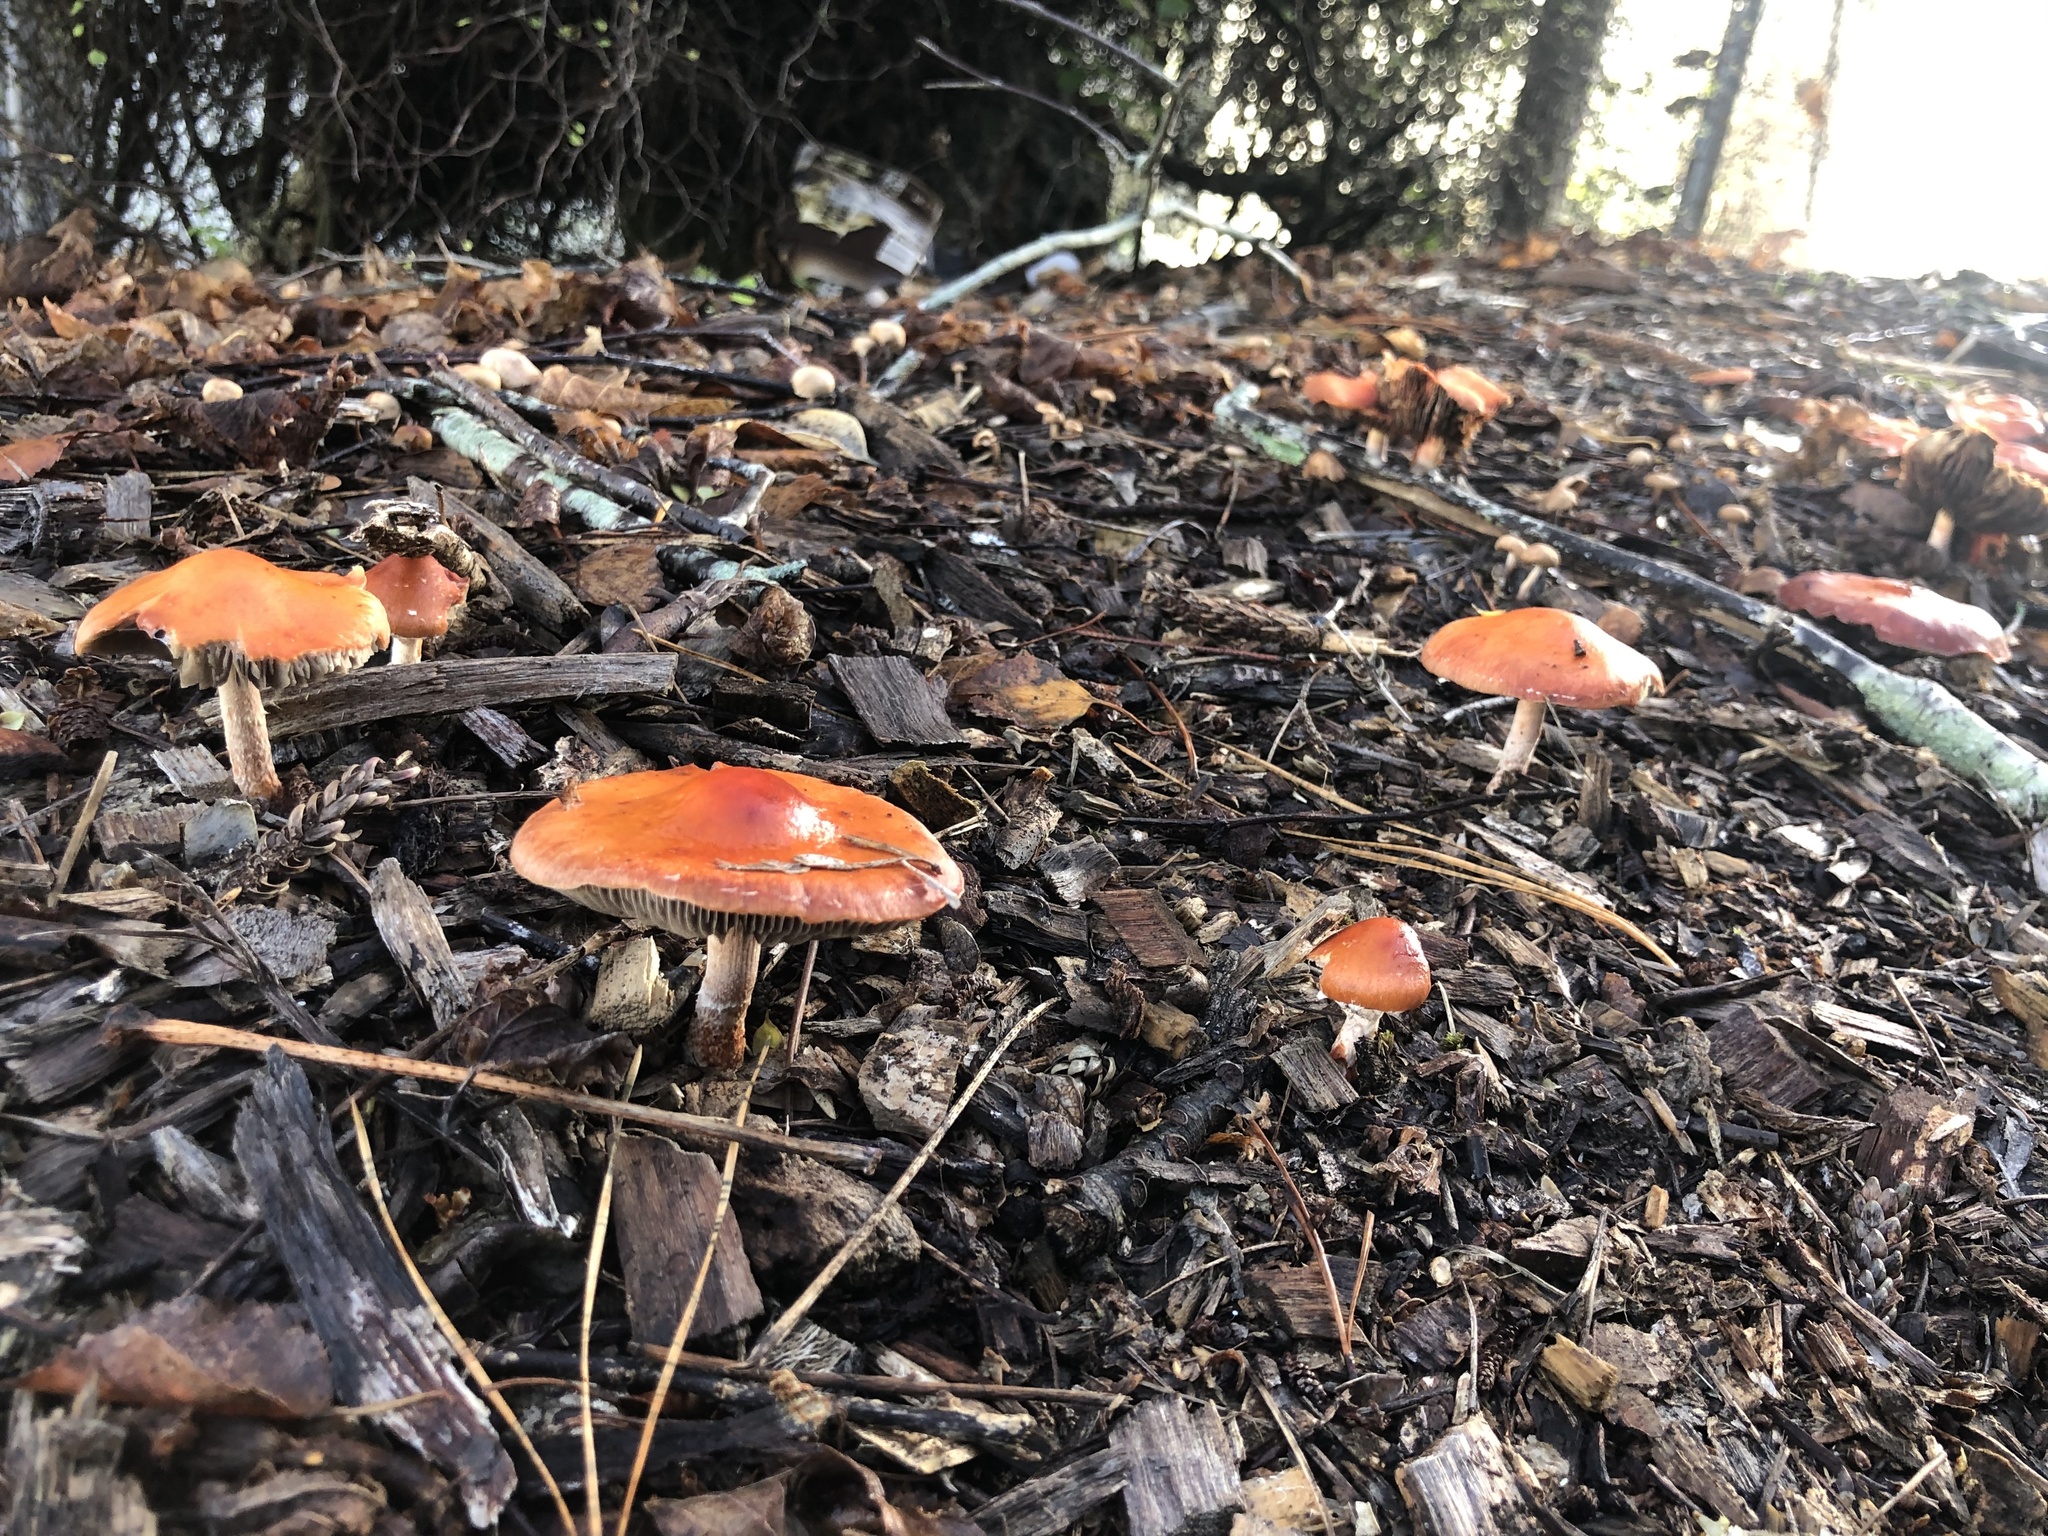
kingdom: Fungi
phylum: Basidiomycota
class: Agaricomycetes
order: Agaricales
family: Strophariaceae
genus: Leratiomyces
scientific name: Leratiomyces ceres
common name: Redlead roundhead
